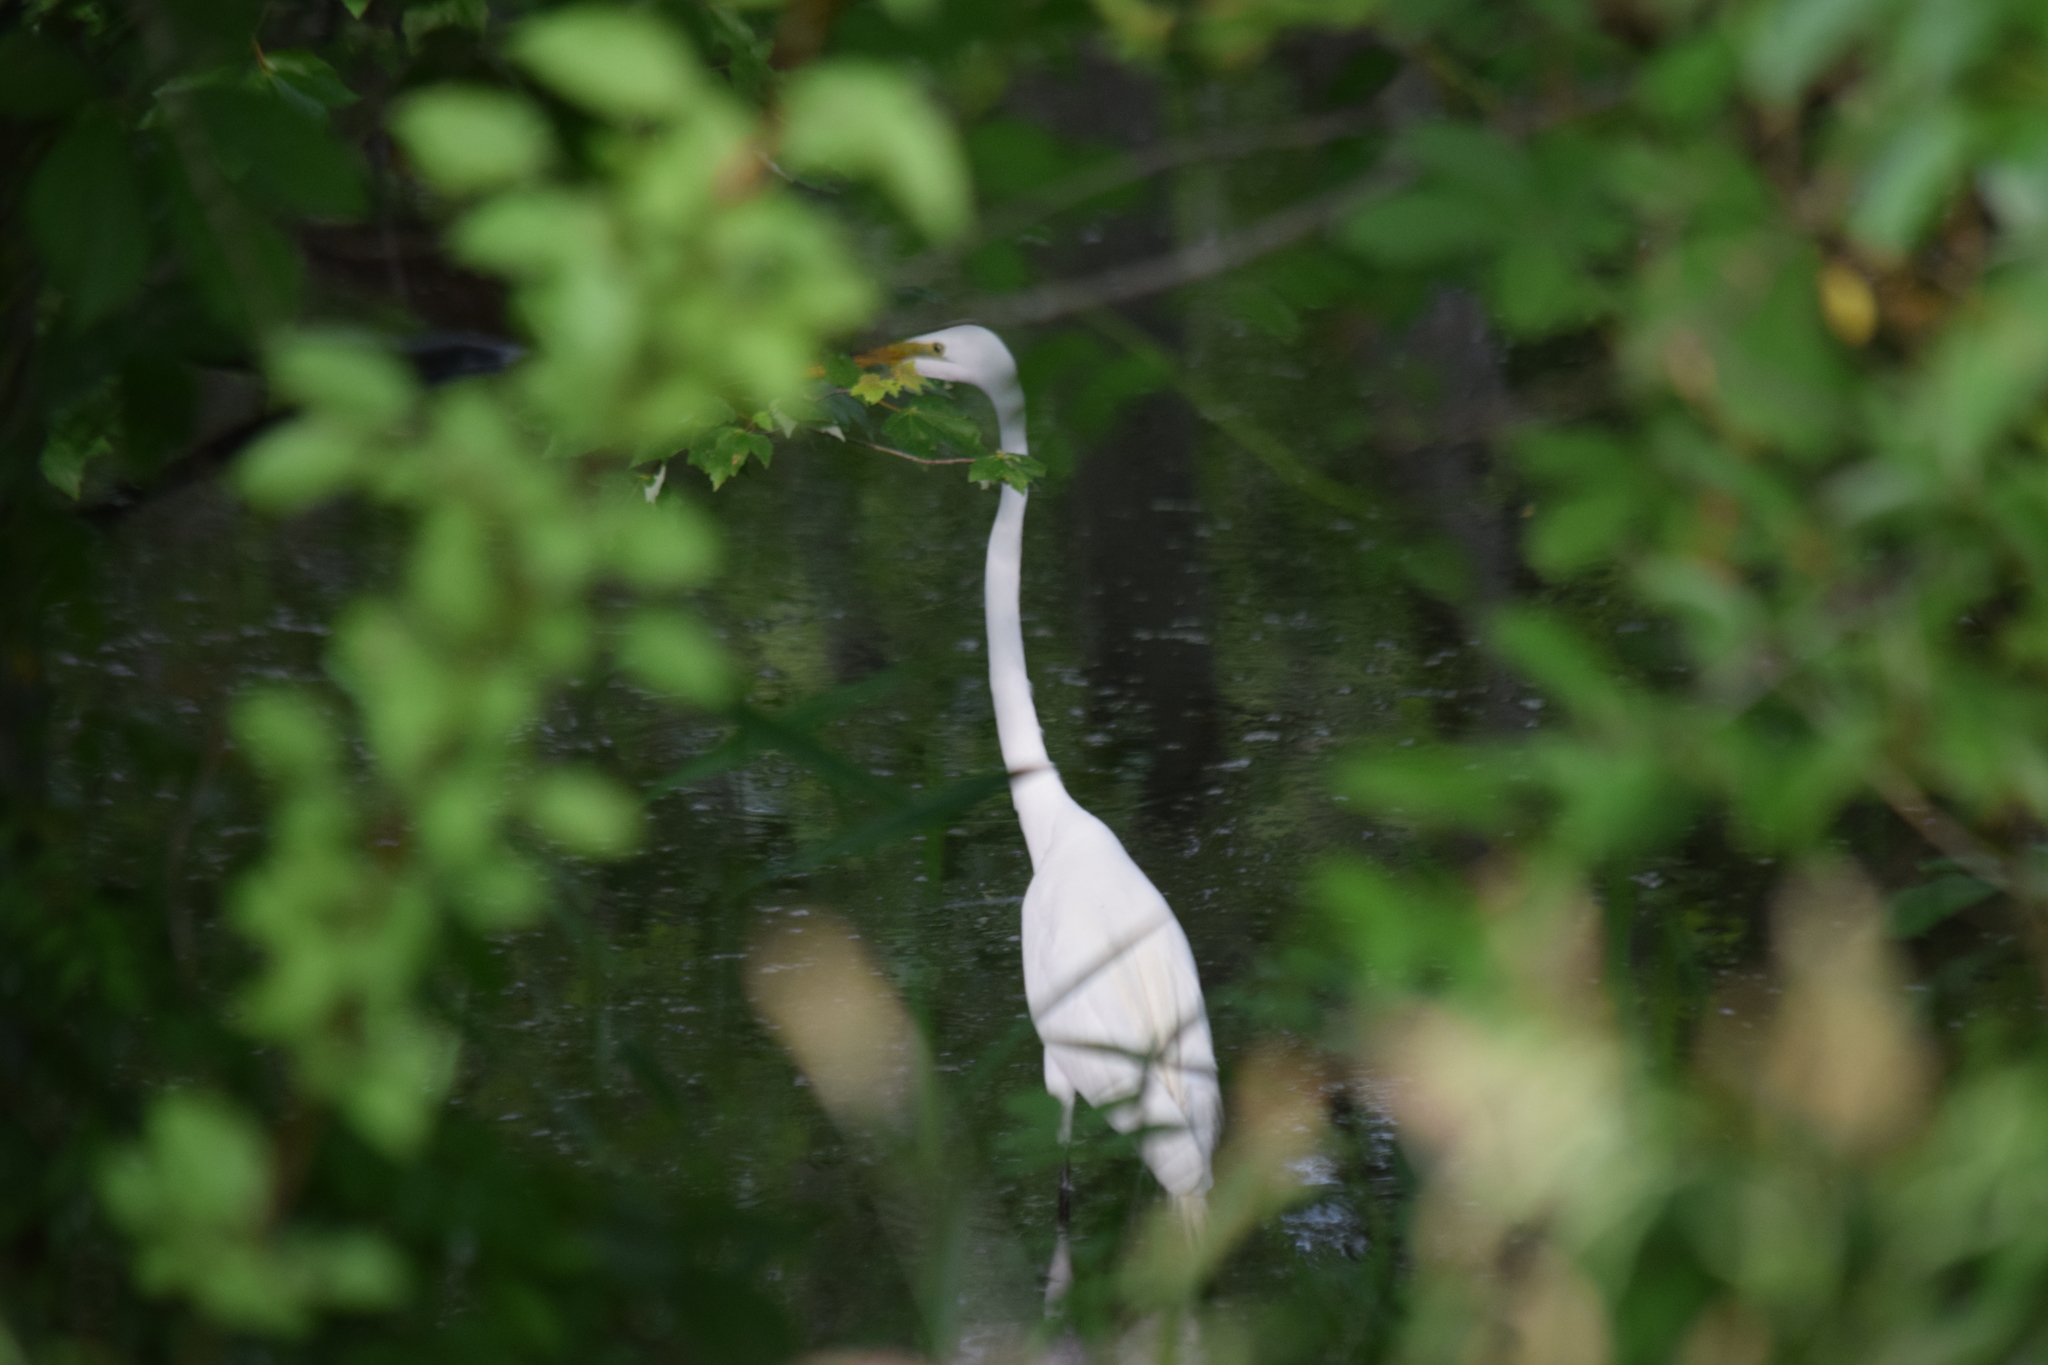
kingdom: Animalia
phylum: Chordata
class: Aves
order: Pelecaniformes
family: Ardeidae
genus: Ardea
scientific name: Ardea alba
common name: Great egret
